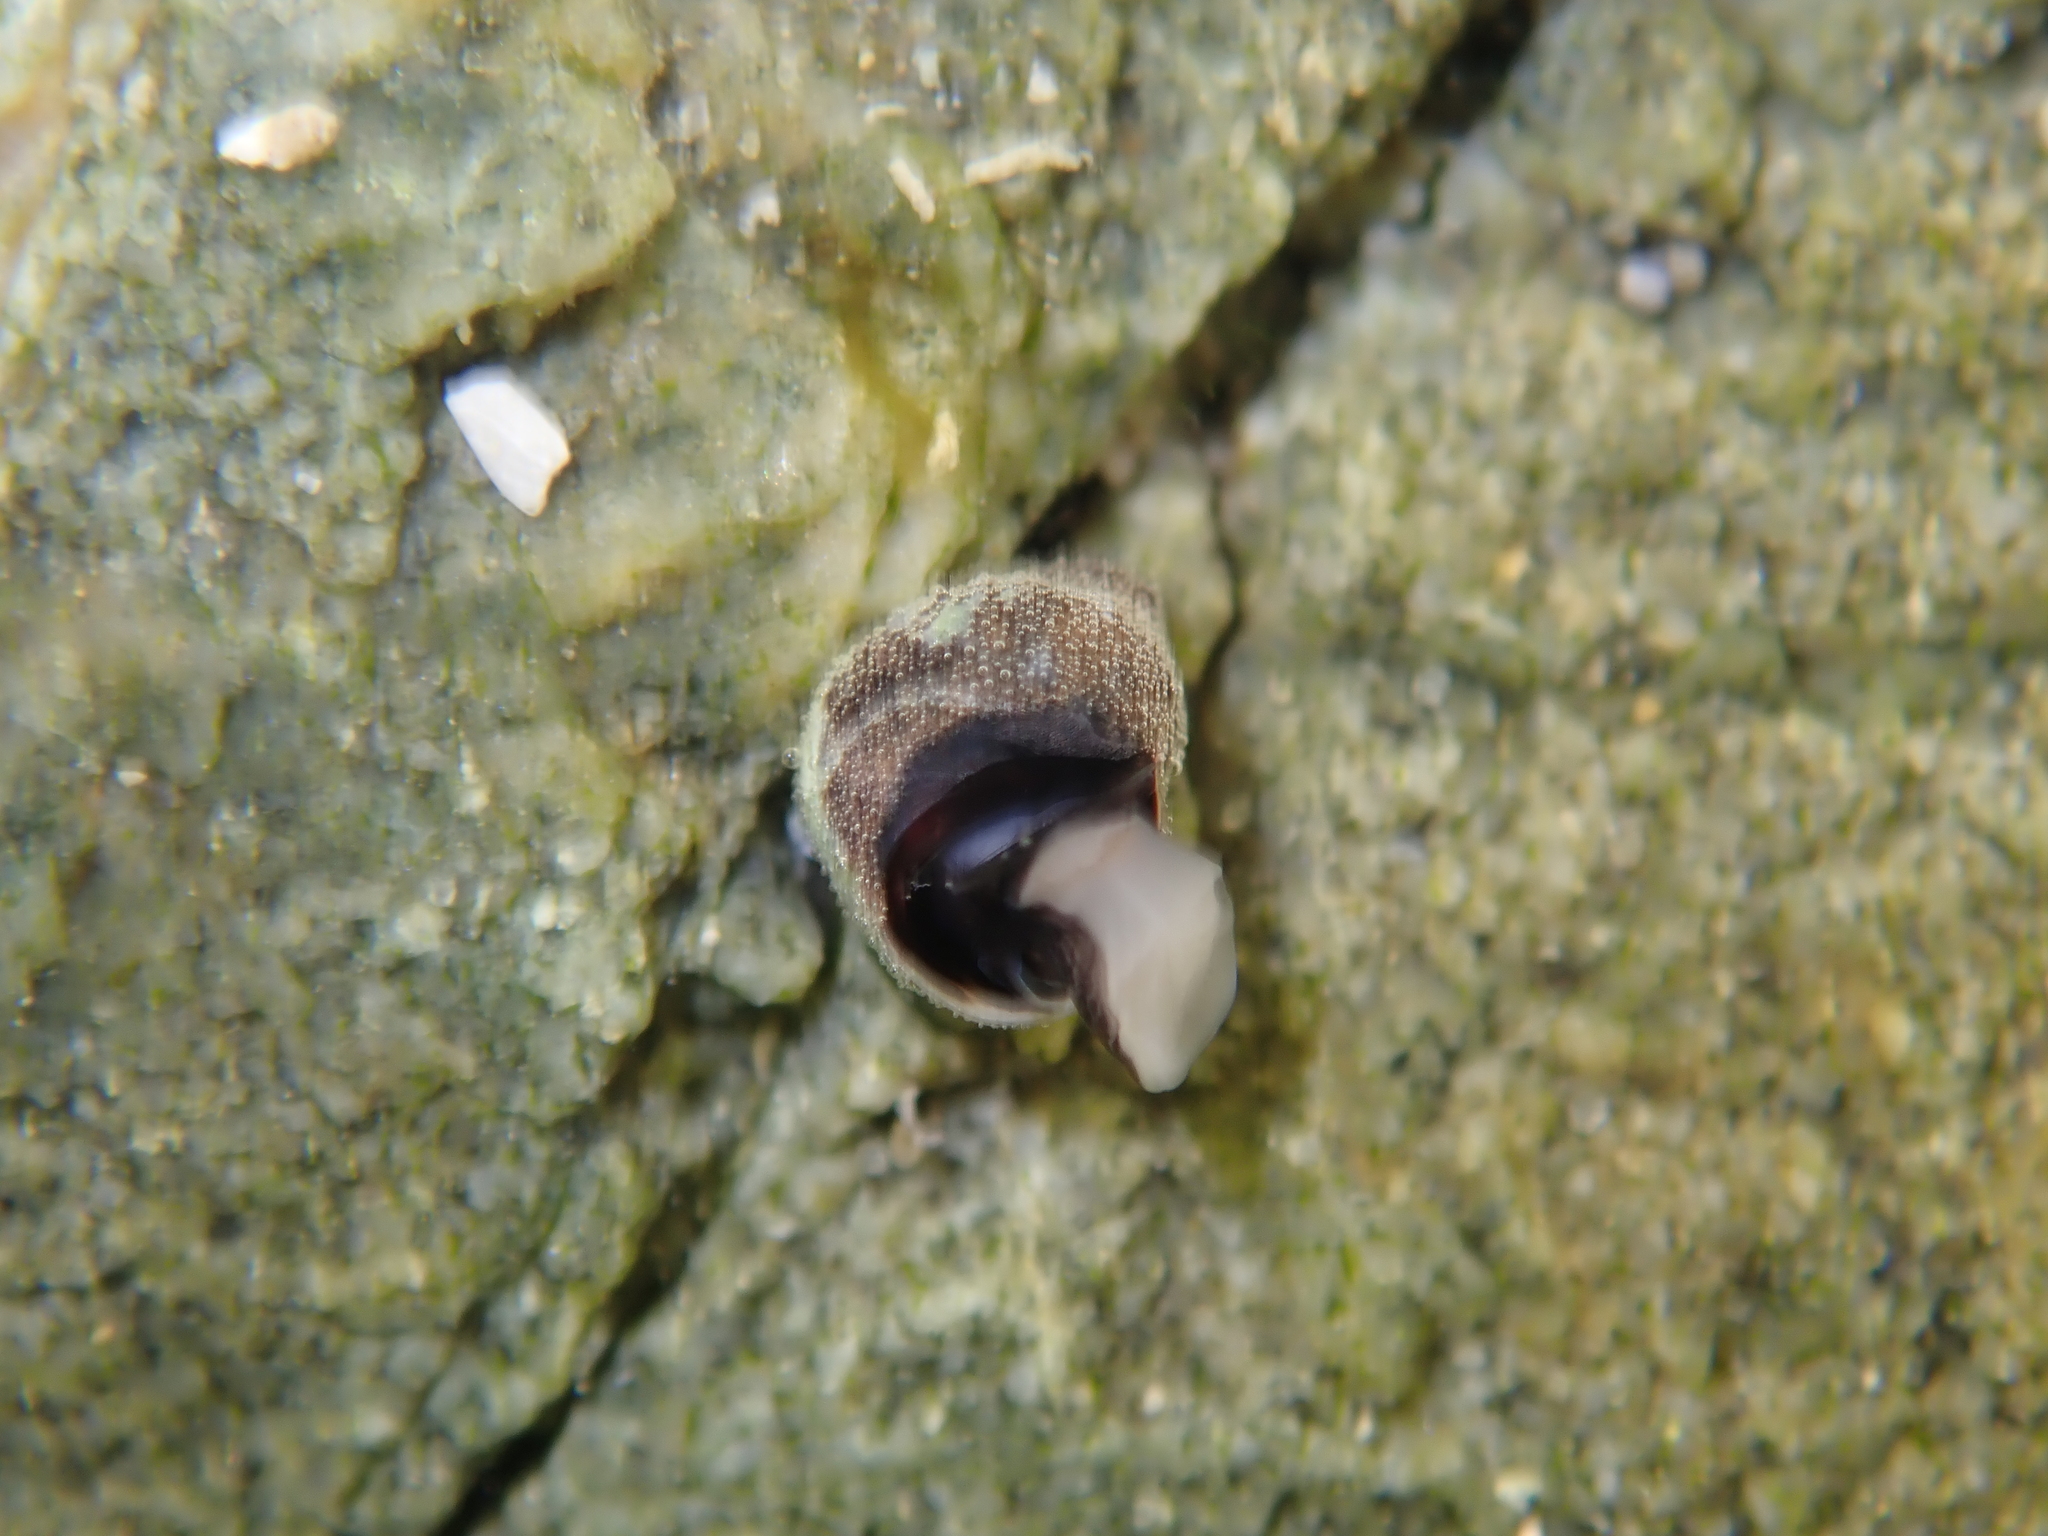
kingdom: Animalia
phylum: Mollusca
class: Gastropoda
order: Littorinimorpha
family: Littorinidae
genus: Austrolittorina
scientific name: Austrolittorina cincta
